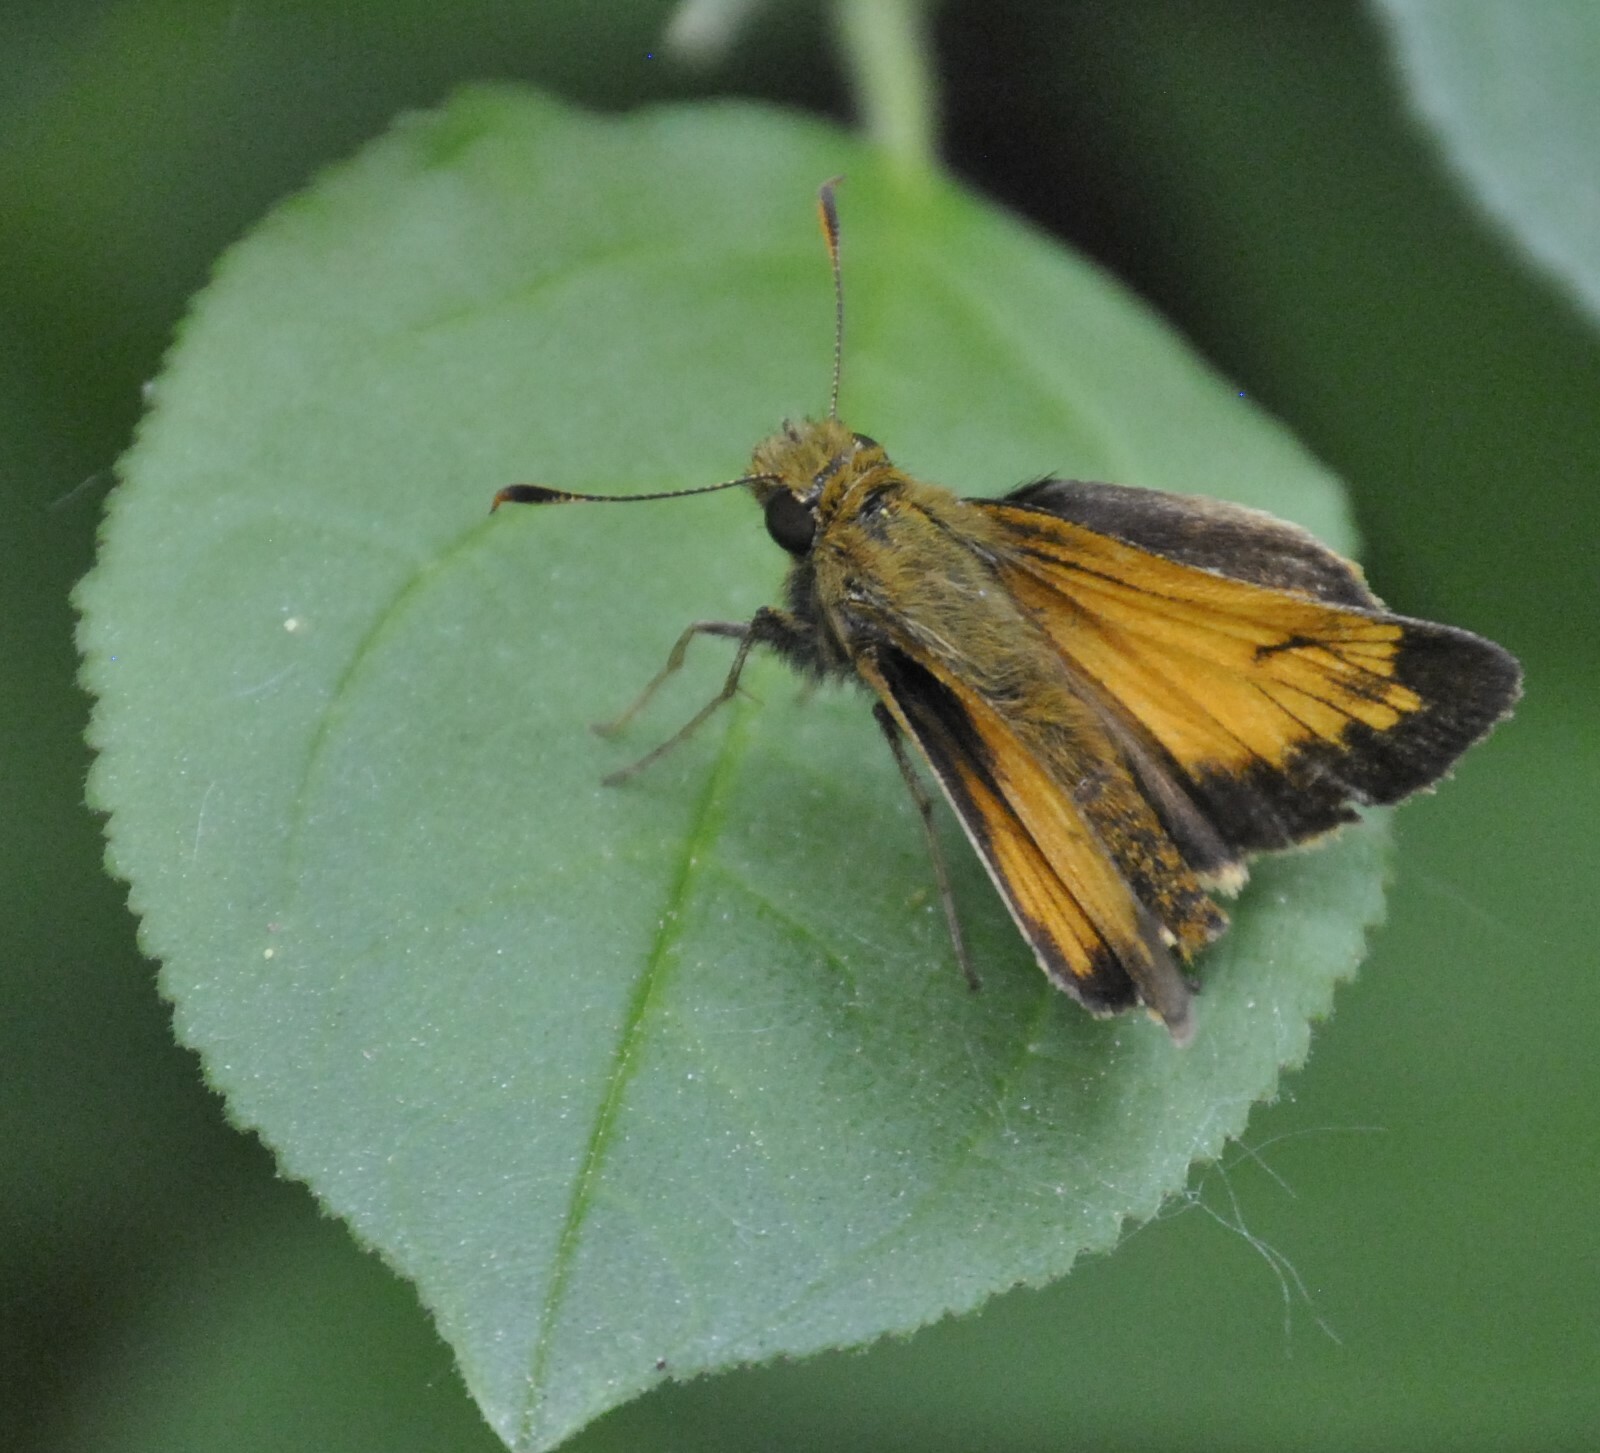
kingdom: Animalia
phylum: Arthropoda
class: Insecta
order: Lepidoptera
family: Hesperiidae
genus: Lon
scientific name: Lon hobomok
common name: Hobomok skipper
